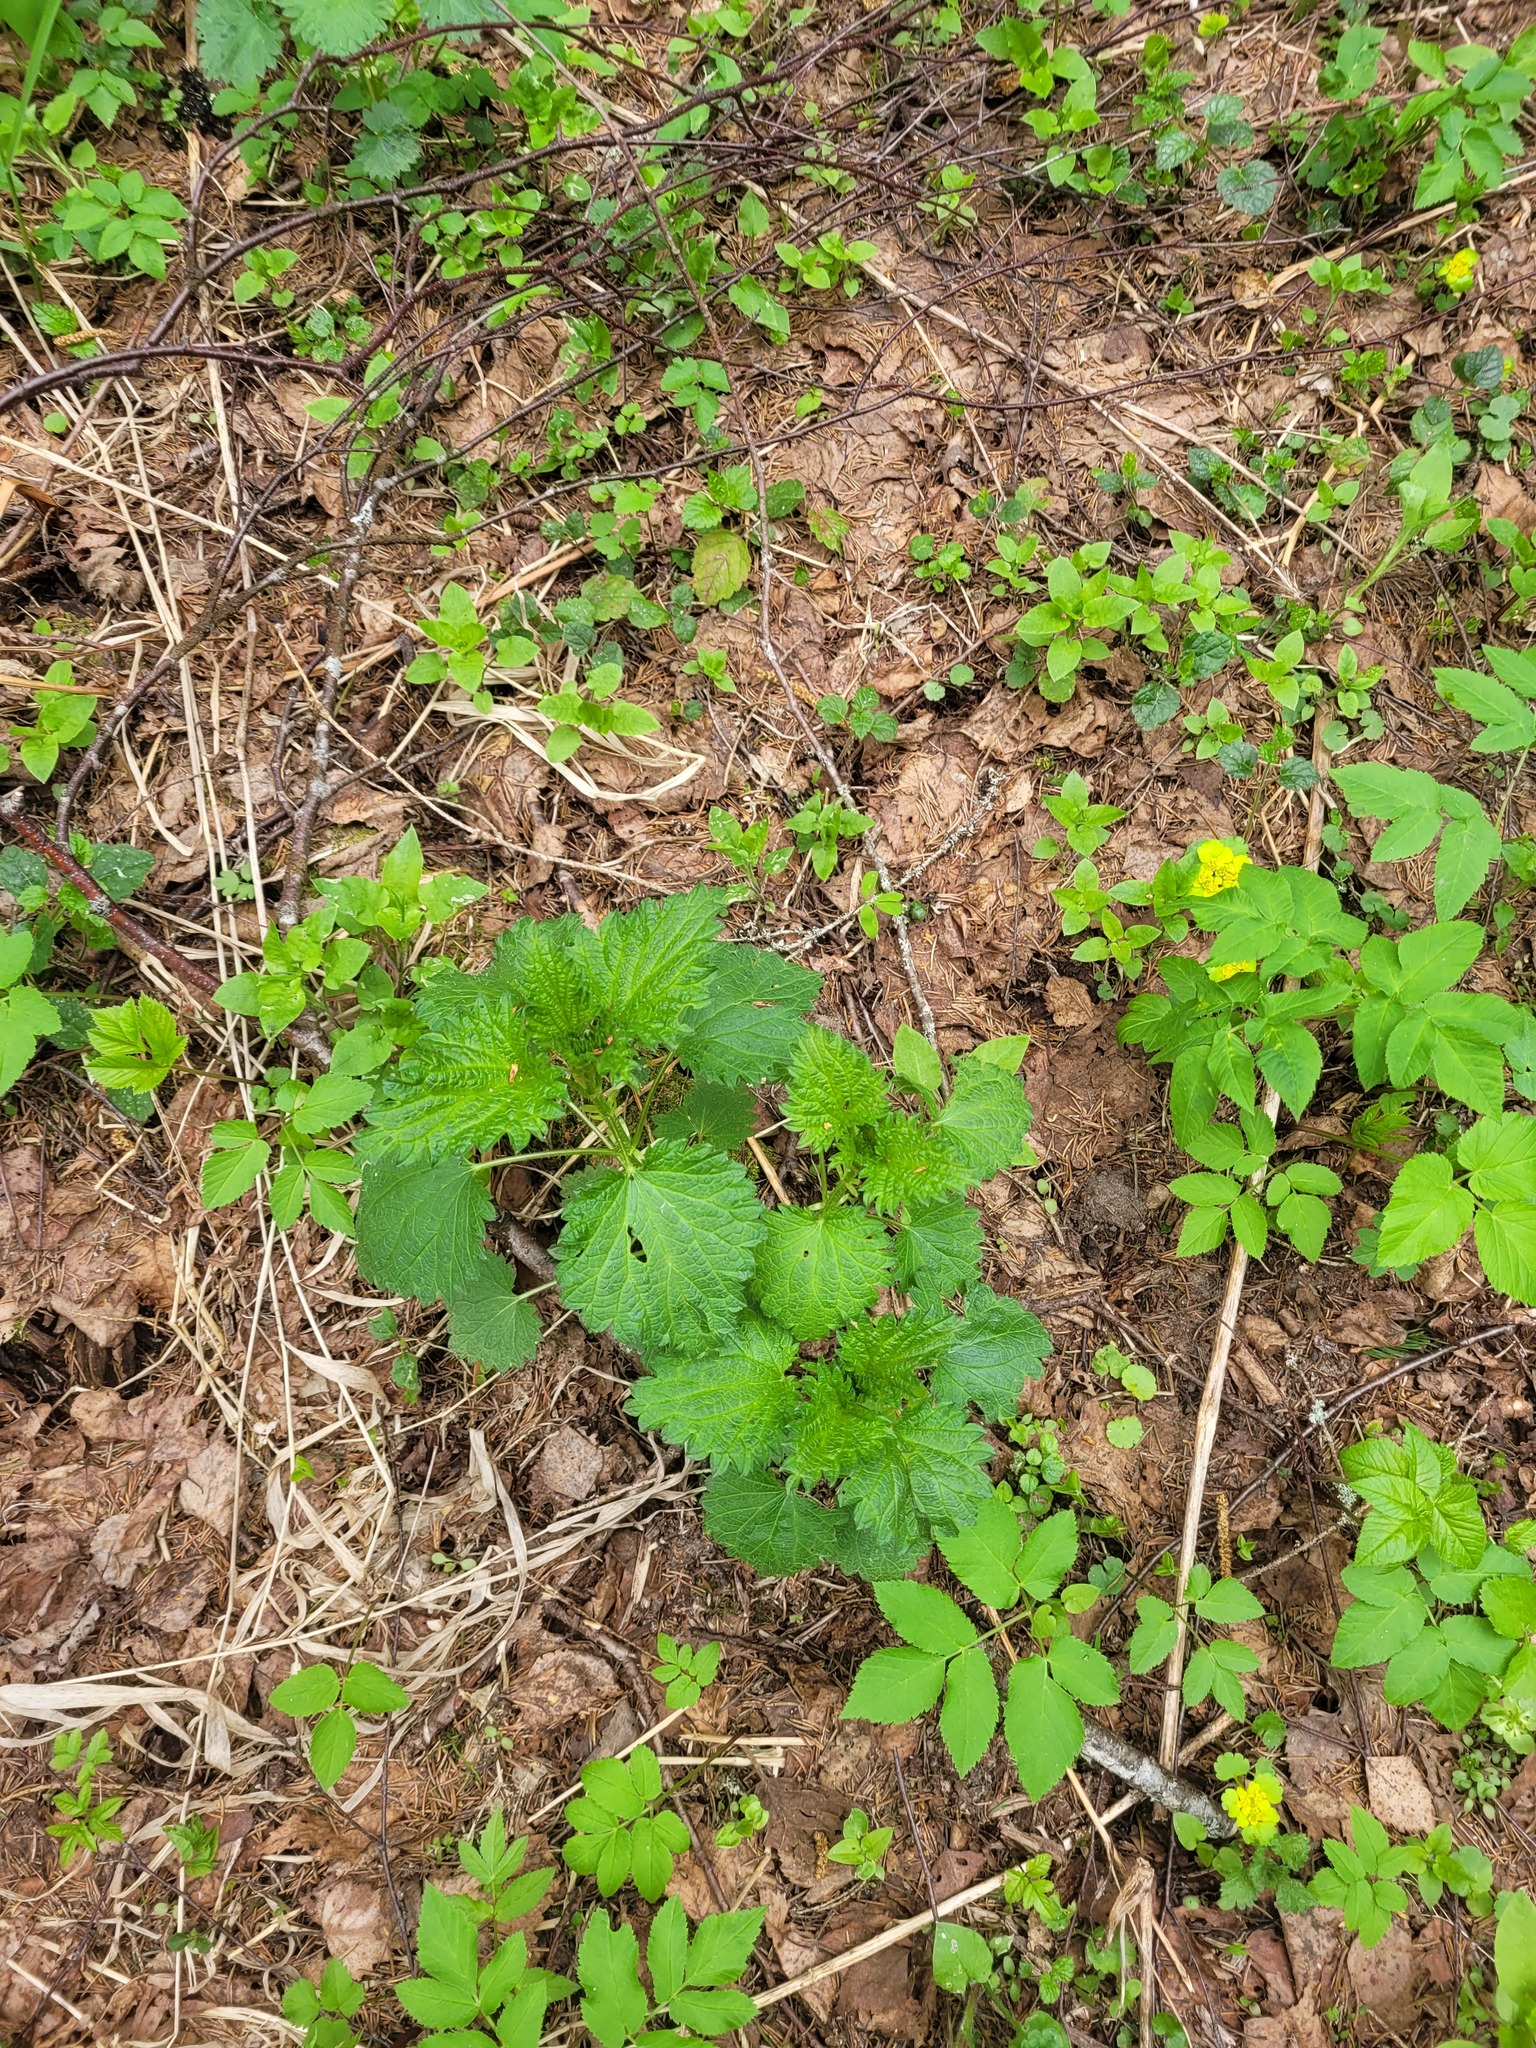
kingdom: Plantae
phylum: Tracheophyta
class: Magnoliopsida
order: Rosales
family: Urticaceae
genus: Urtica
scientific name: Urtica dioica
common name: Common nettle
